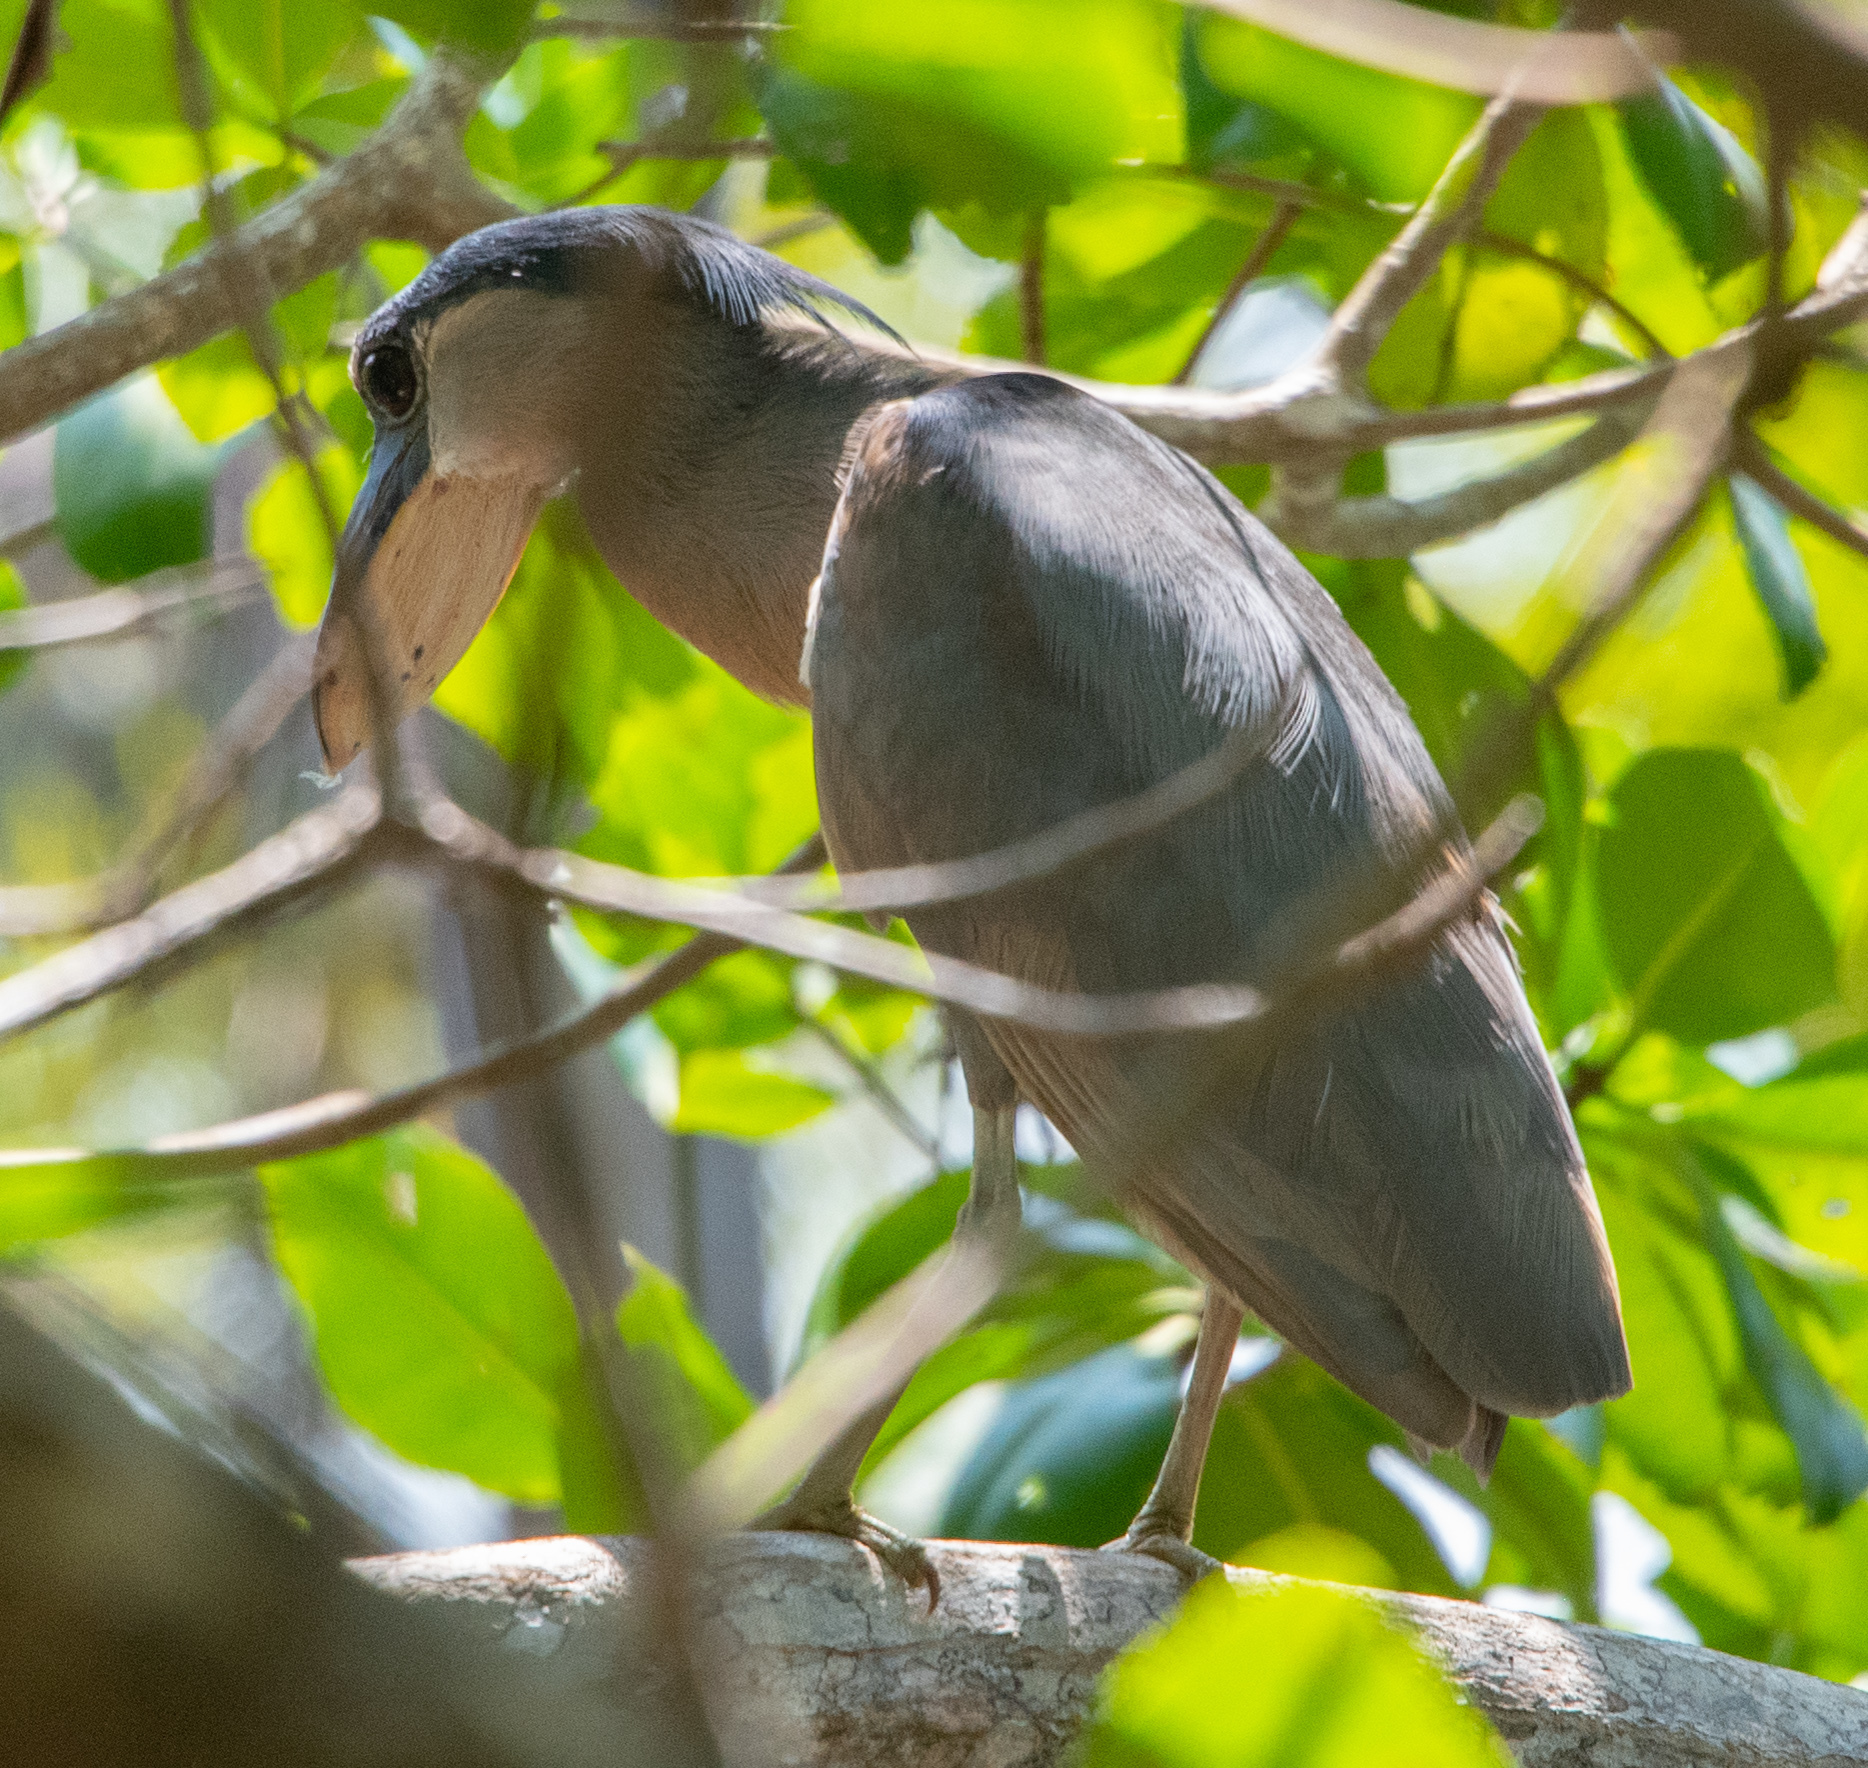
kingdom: Animalia
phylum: Chordata
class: Aves
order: Pelecaniformes
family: Ardeidae
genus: Cochlearius
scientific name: Cochlearius cochlearius
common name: Boat-billed heron
